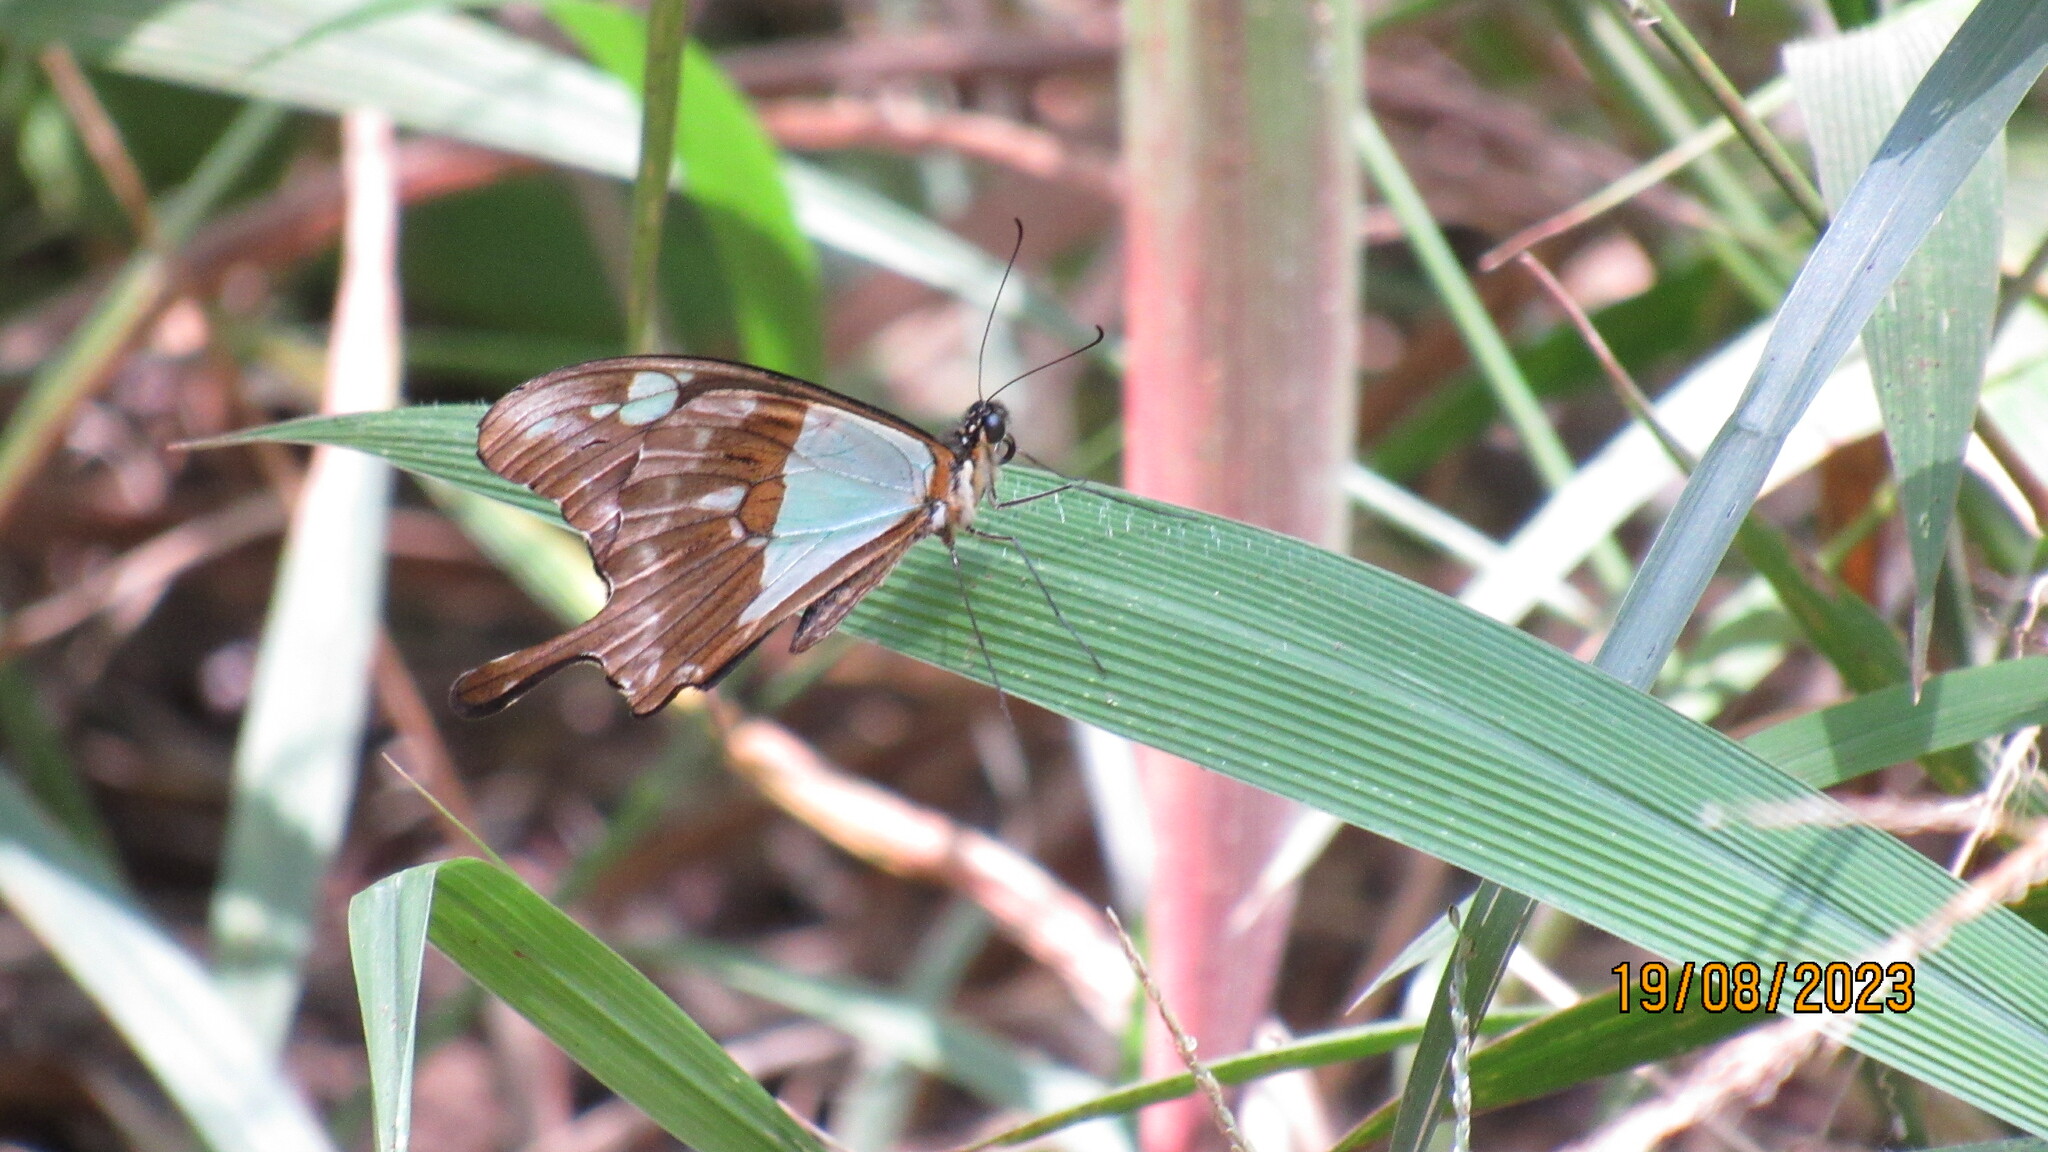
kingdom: Animalia
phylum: Arthropoda
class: Insecta
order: Lepidoptera
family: Papilionidae
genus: Papilio
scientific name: Papilio phorcas
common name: Apple-green swallowtail
